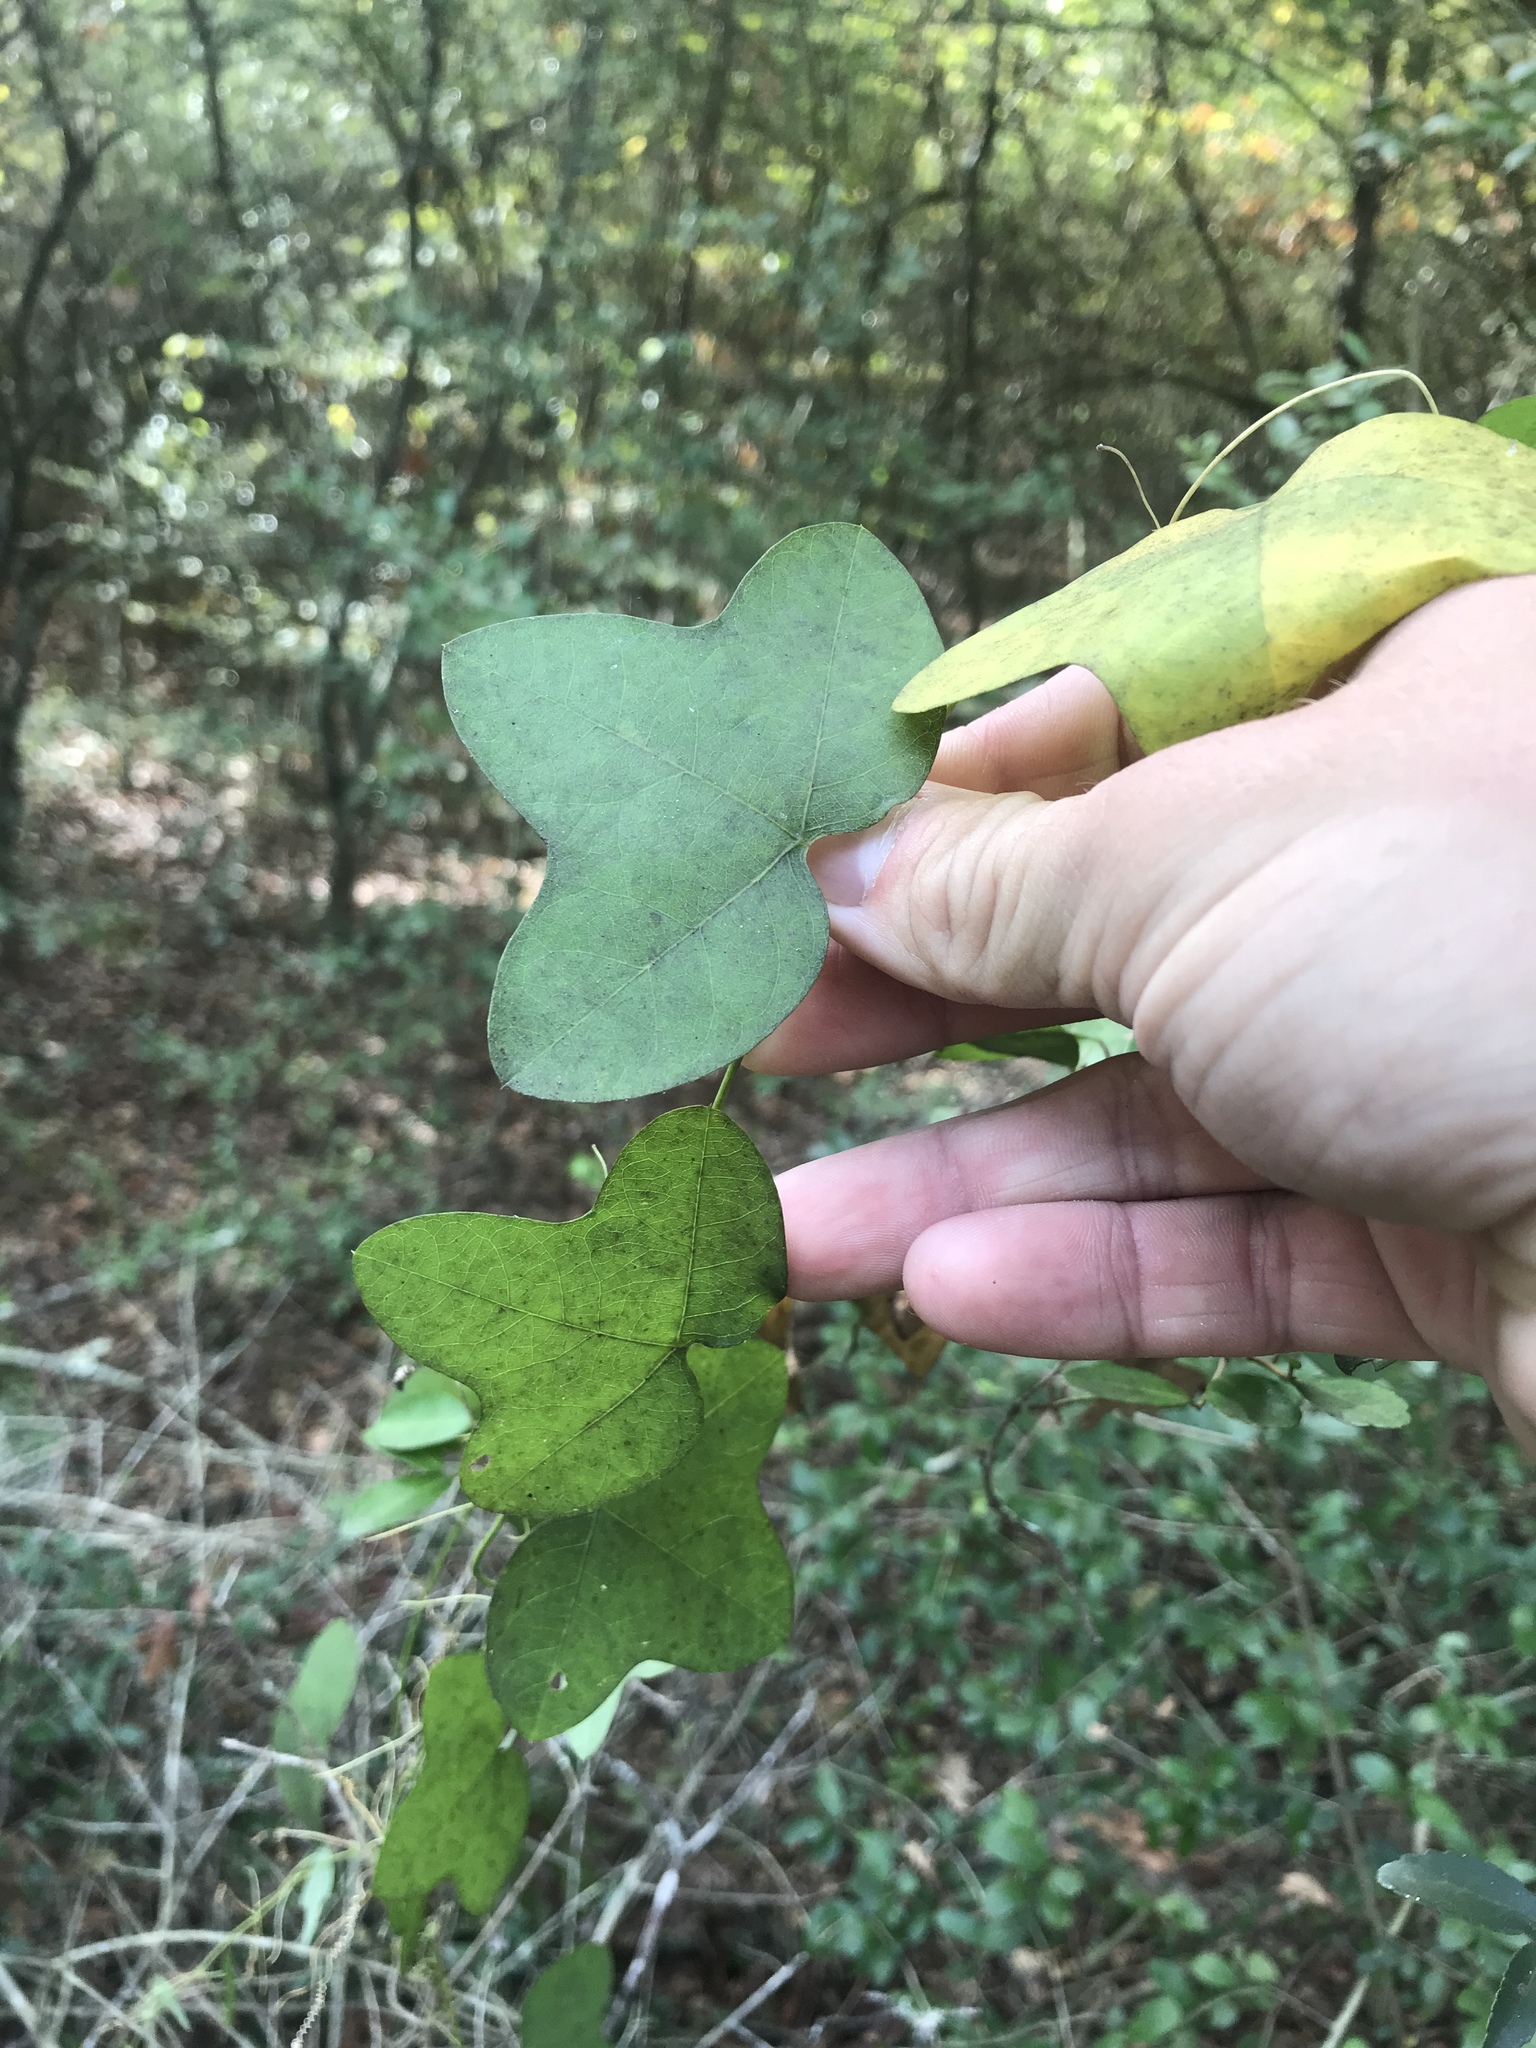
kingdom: Plantae
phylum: Tracheophyta
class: Magnoliopsida
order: Malpighiales
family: Passifloraceae
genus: Passiflora
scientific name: Passiflora lutea
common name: Yellow passionflower
